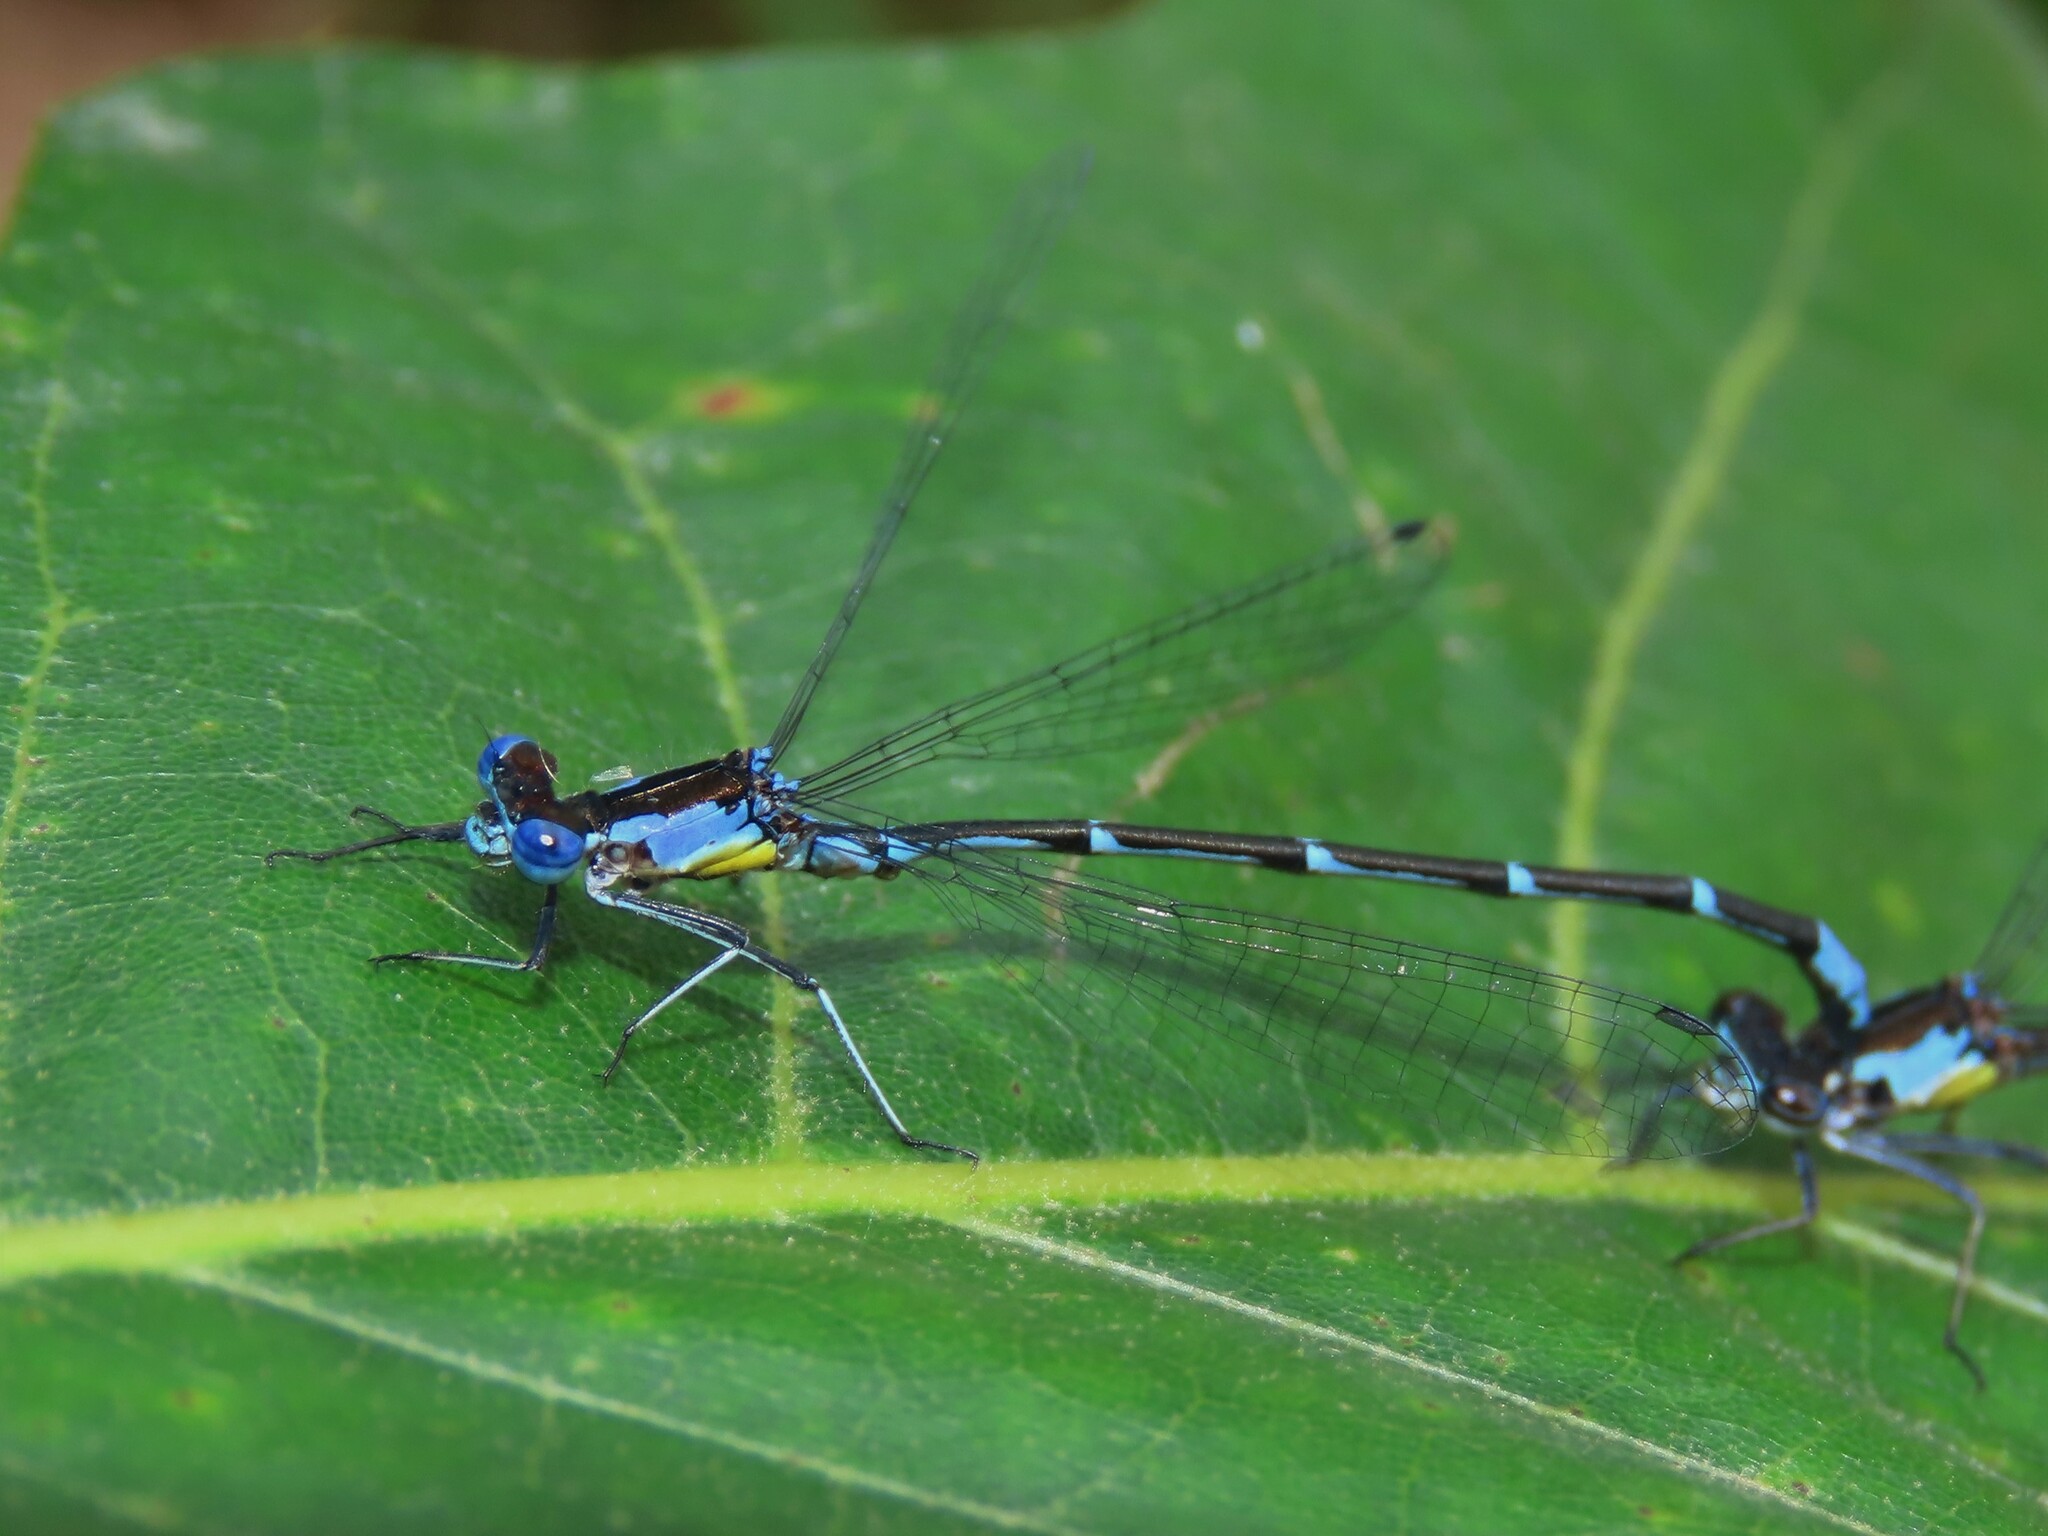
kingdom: Animalia
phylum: Arthropoda
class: Insecta
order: Odonata
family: Coenagrionidae
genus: Chromagrion
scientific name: Chromagrion conditum
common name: Aurora damsel
